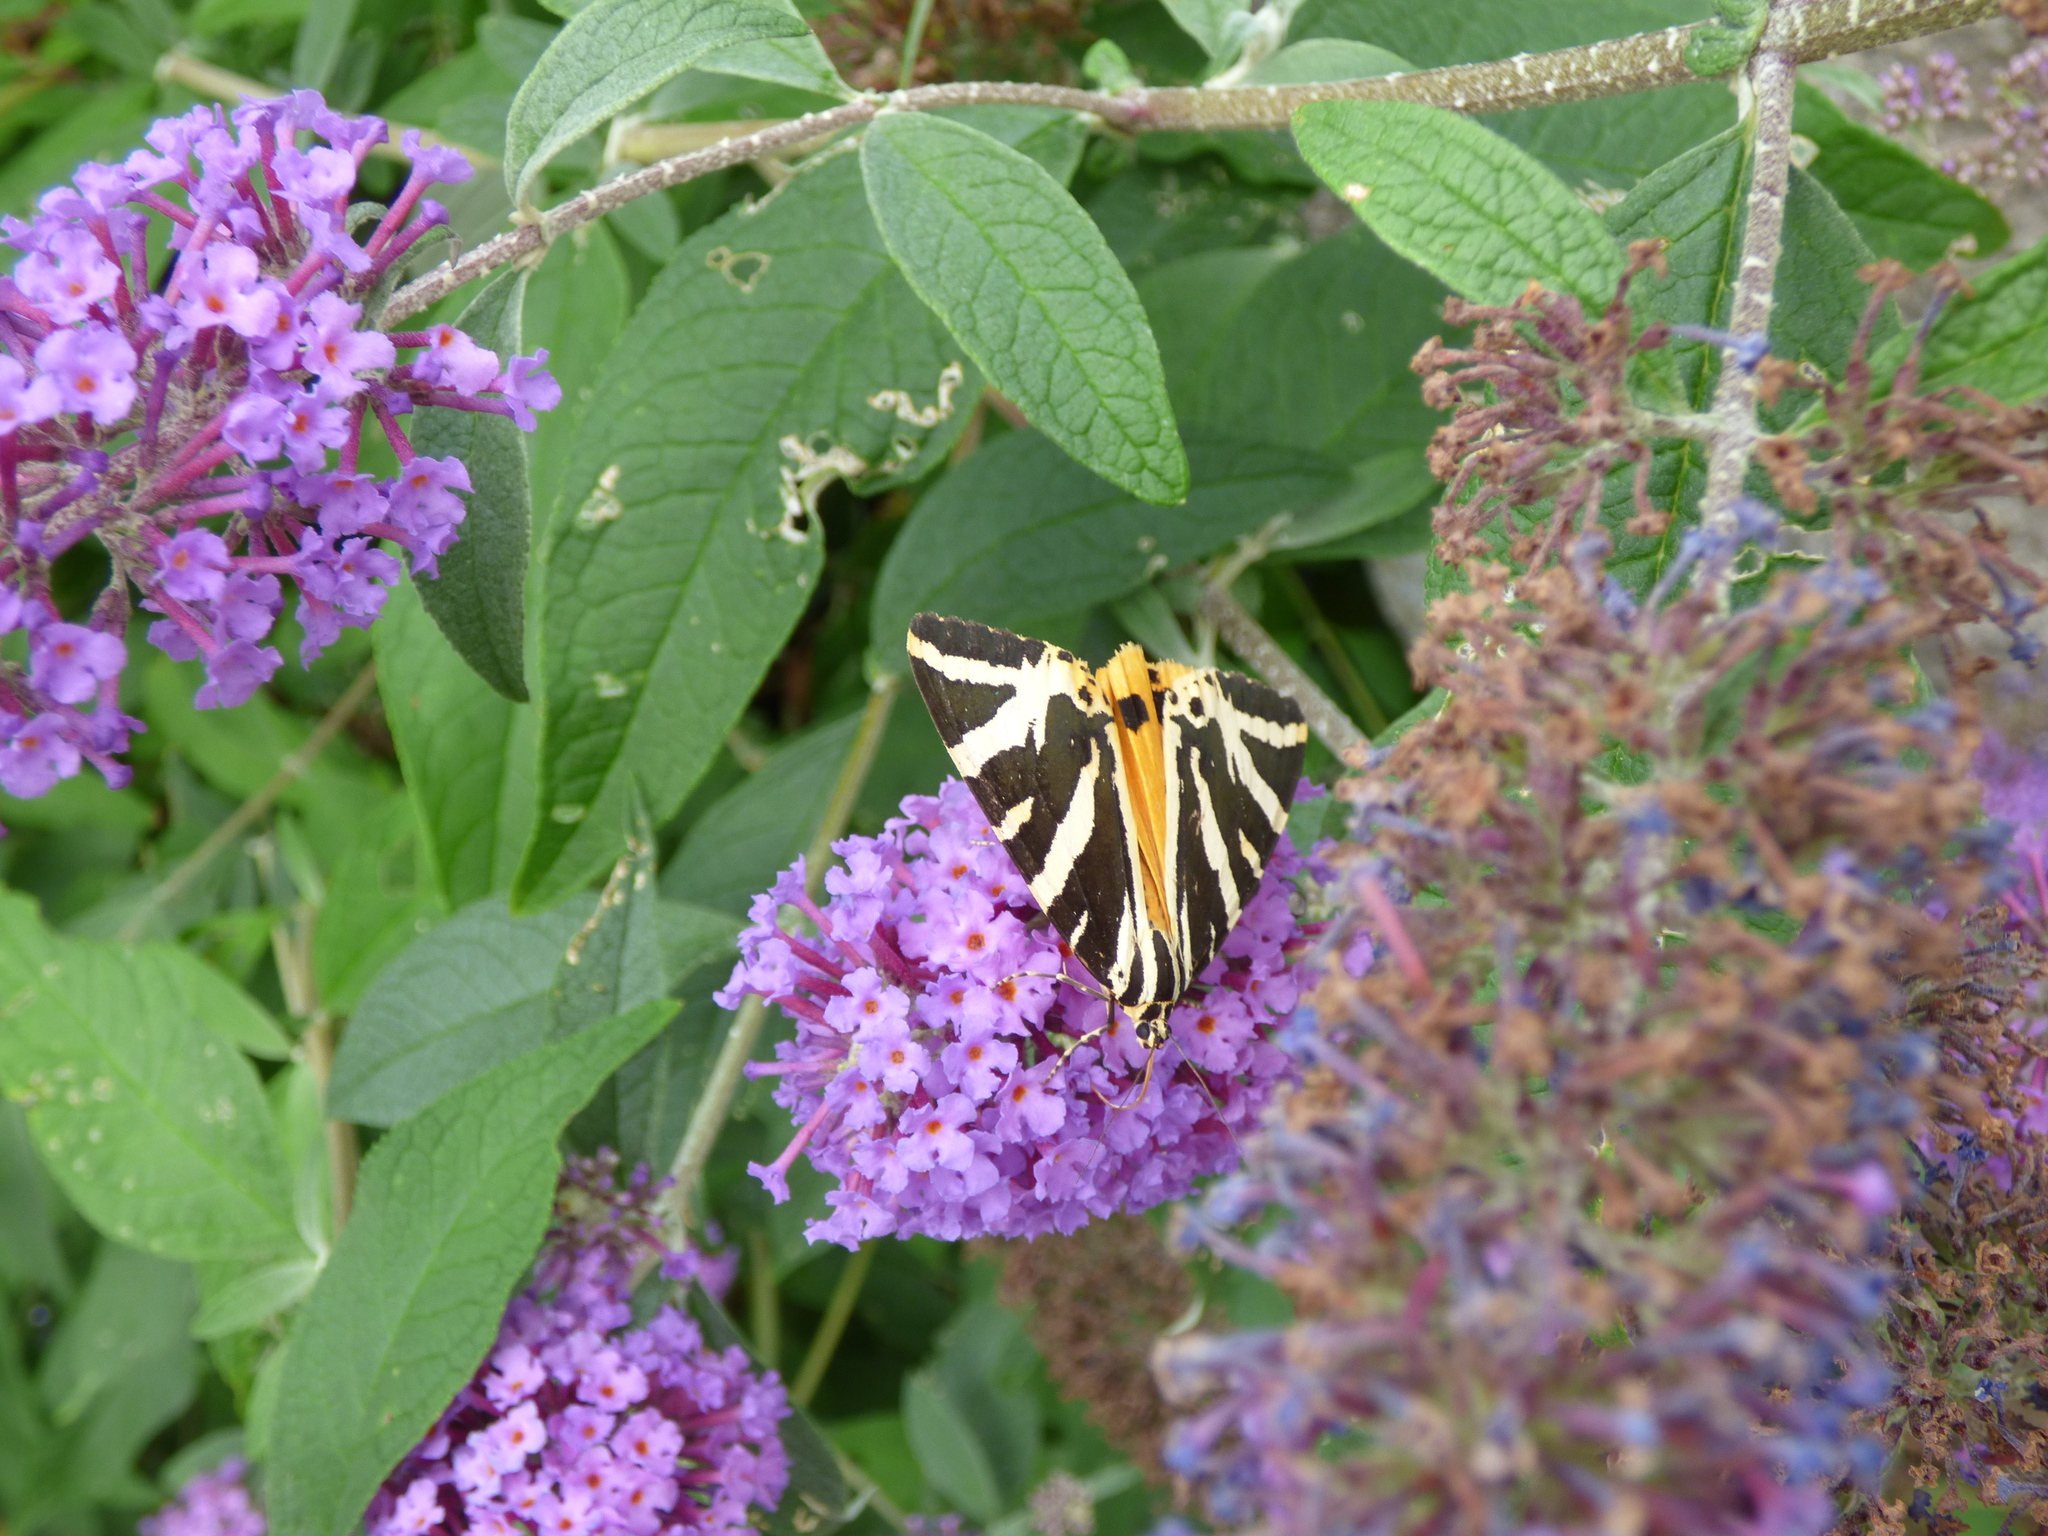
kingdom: Animalia
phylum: Arthropoda
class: Insecta
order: Lepidoptera
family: Erebidae
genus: Euplagia
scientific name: Euplagia quadripunctaria
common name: Jersey tiger
